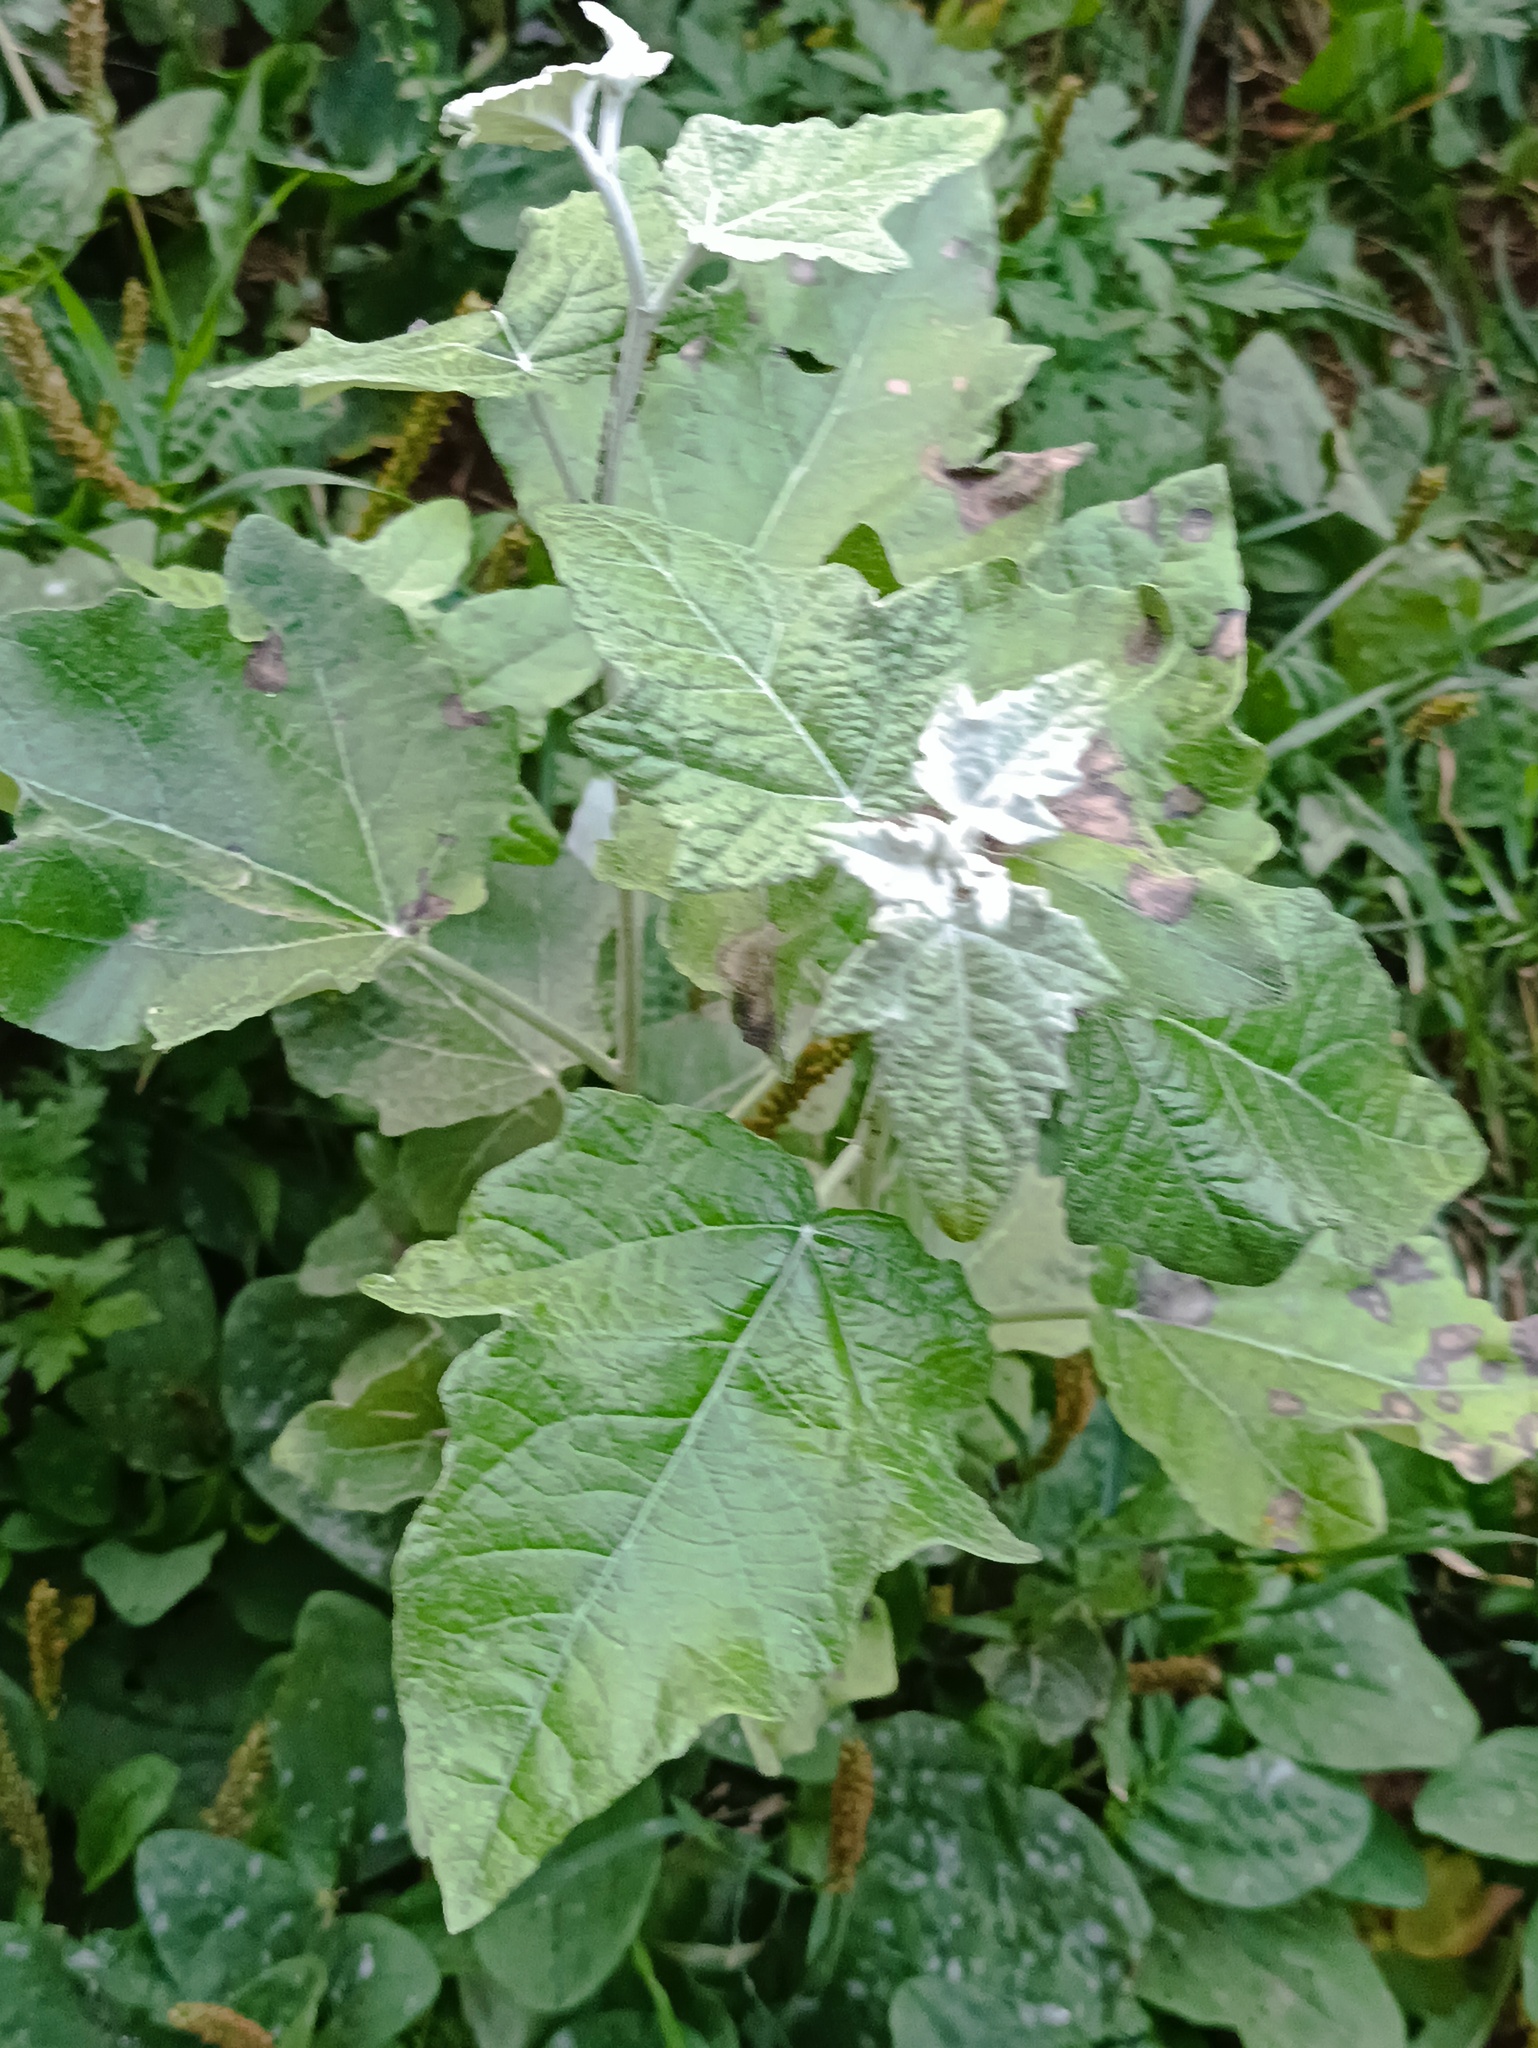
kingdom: Plantae
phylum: Tracheophyta
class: Magnoliopsida
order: Malpighiales
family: Salicaceae
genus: Populus
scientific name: Populus alba
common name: White poplar
